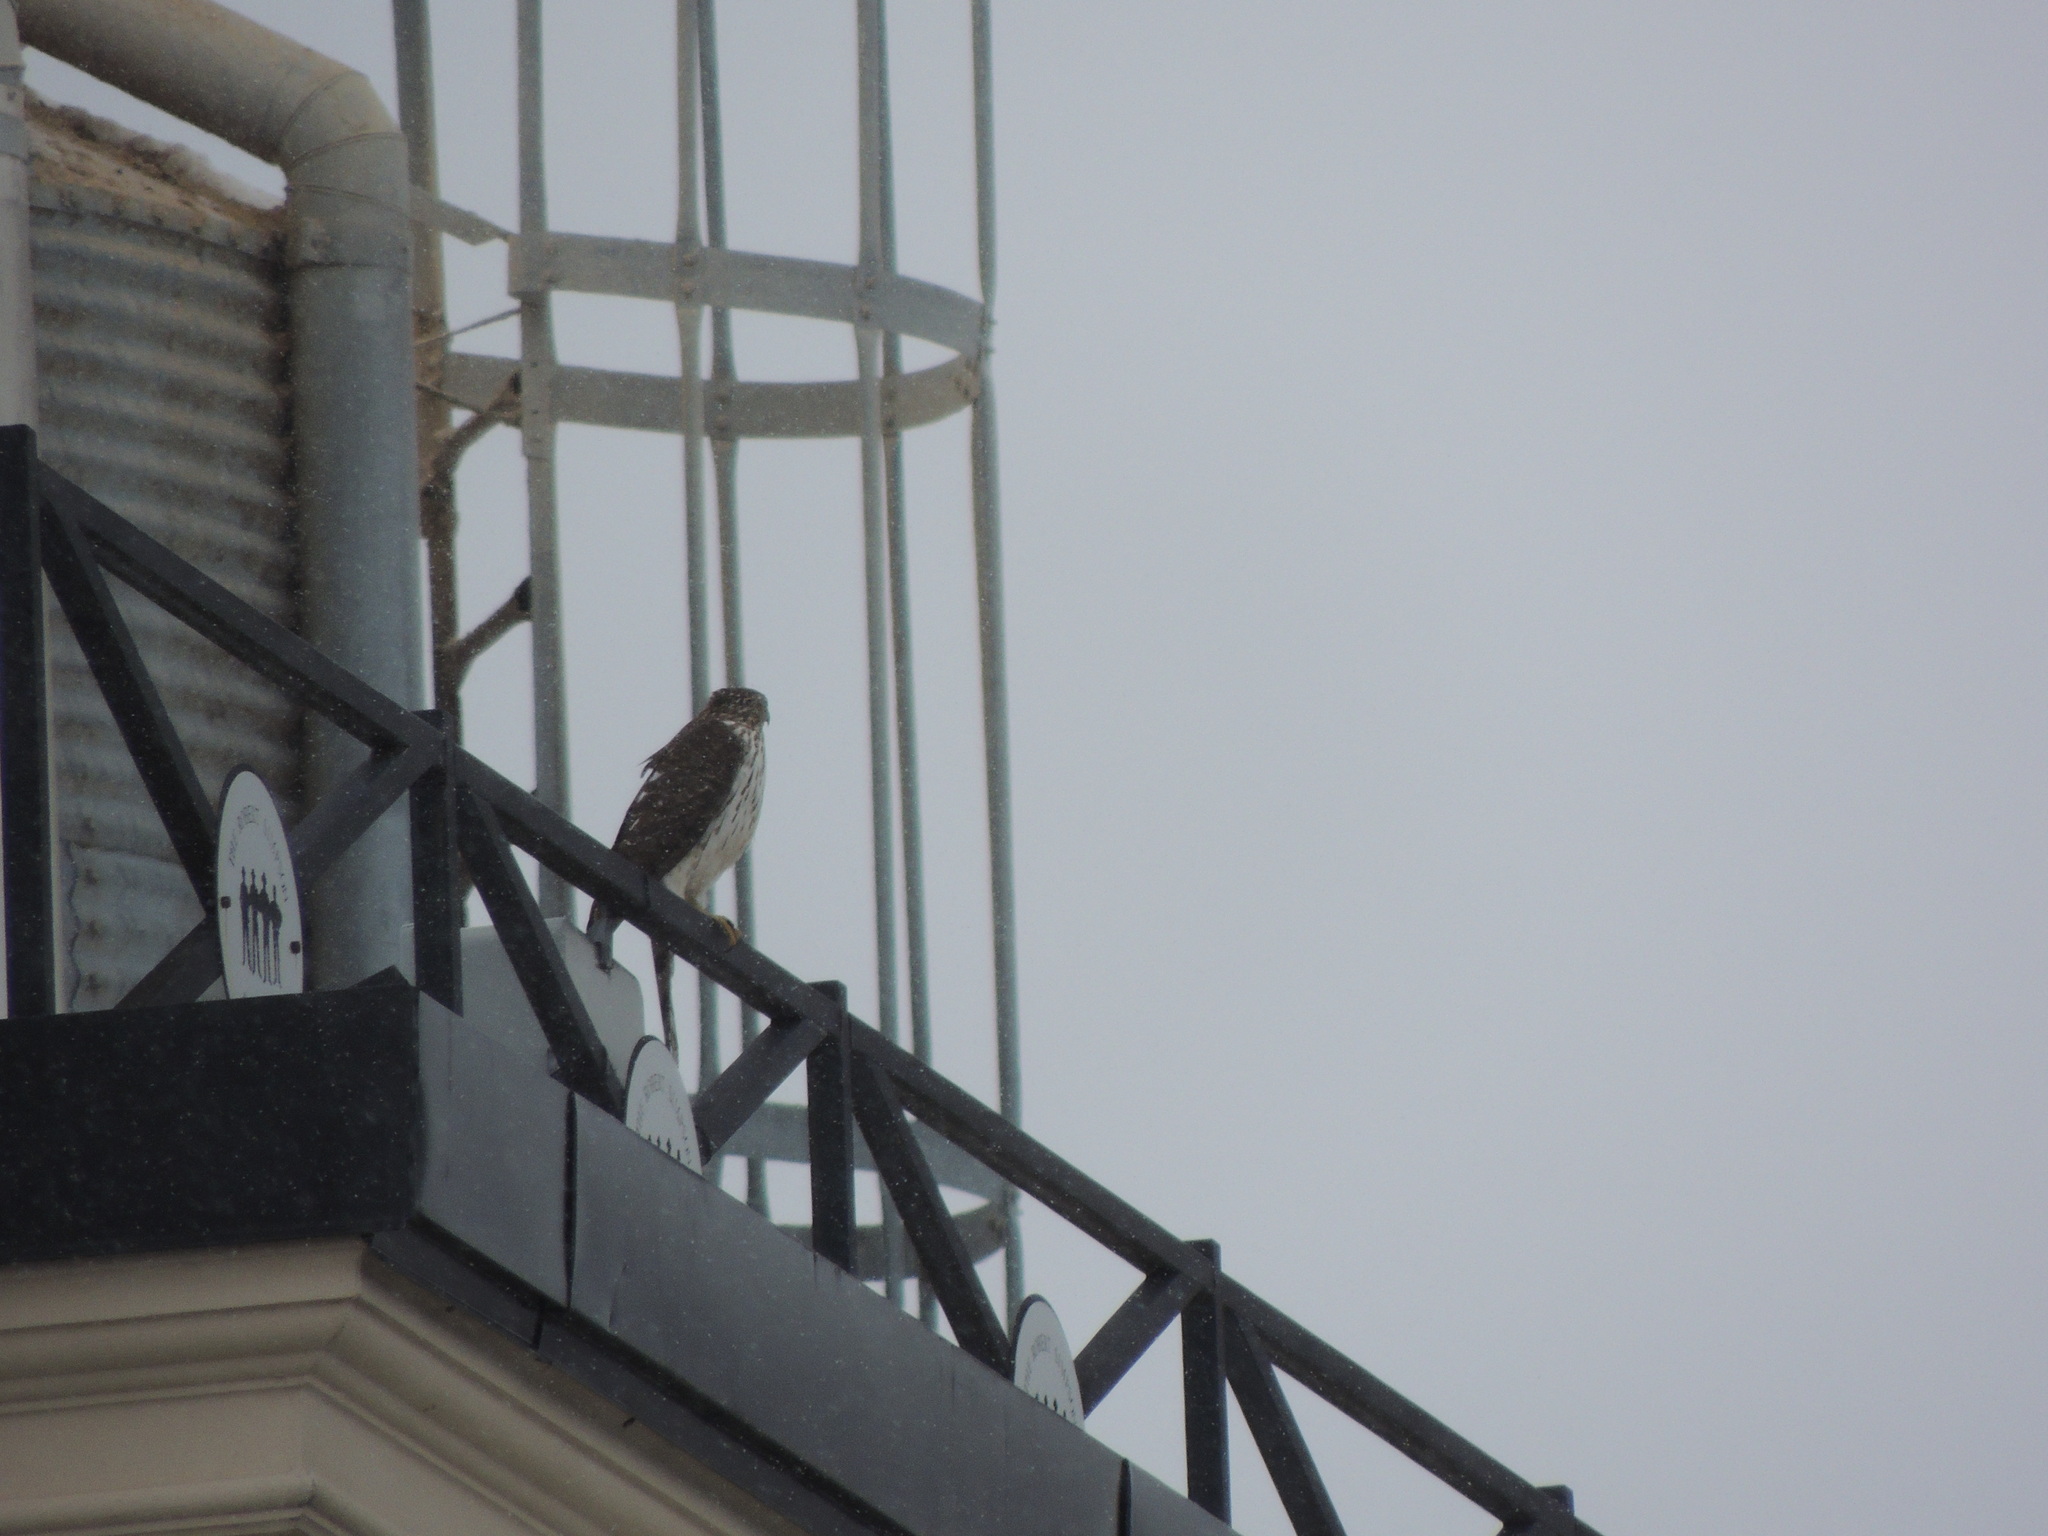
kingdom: Animalia
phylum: Chordata
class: Aves
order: Accipitriformes
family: Accipitridae
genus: Accipiter
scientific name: Accipiter cooperii
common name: Cooper's hawk
